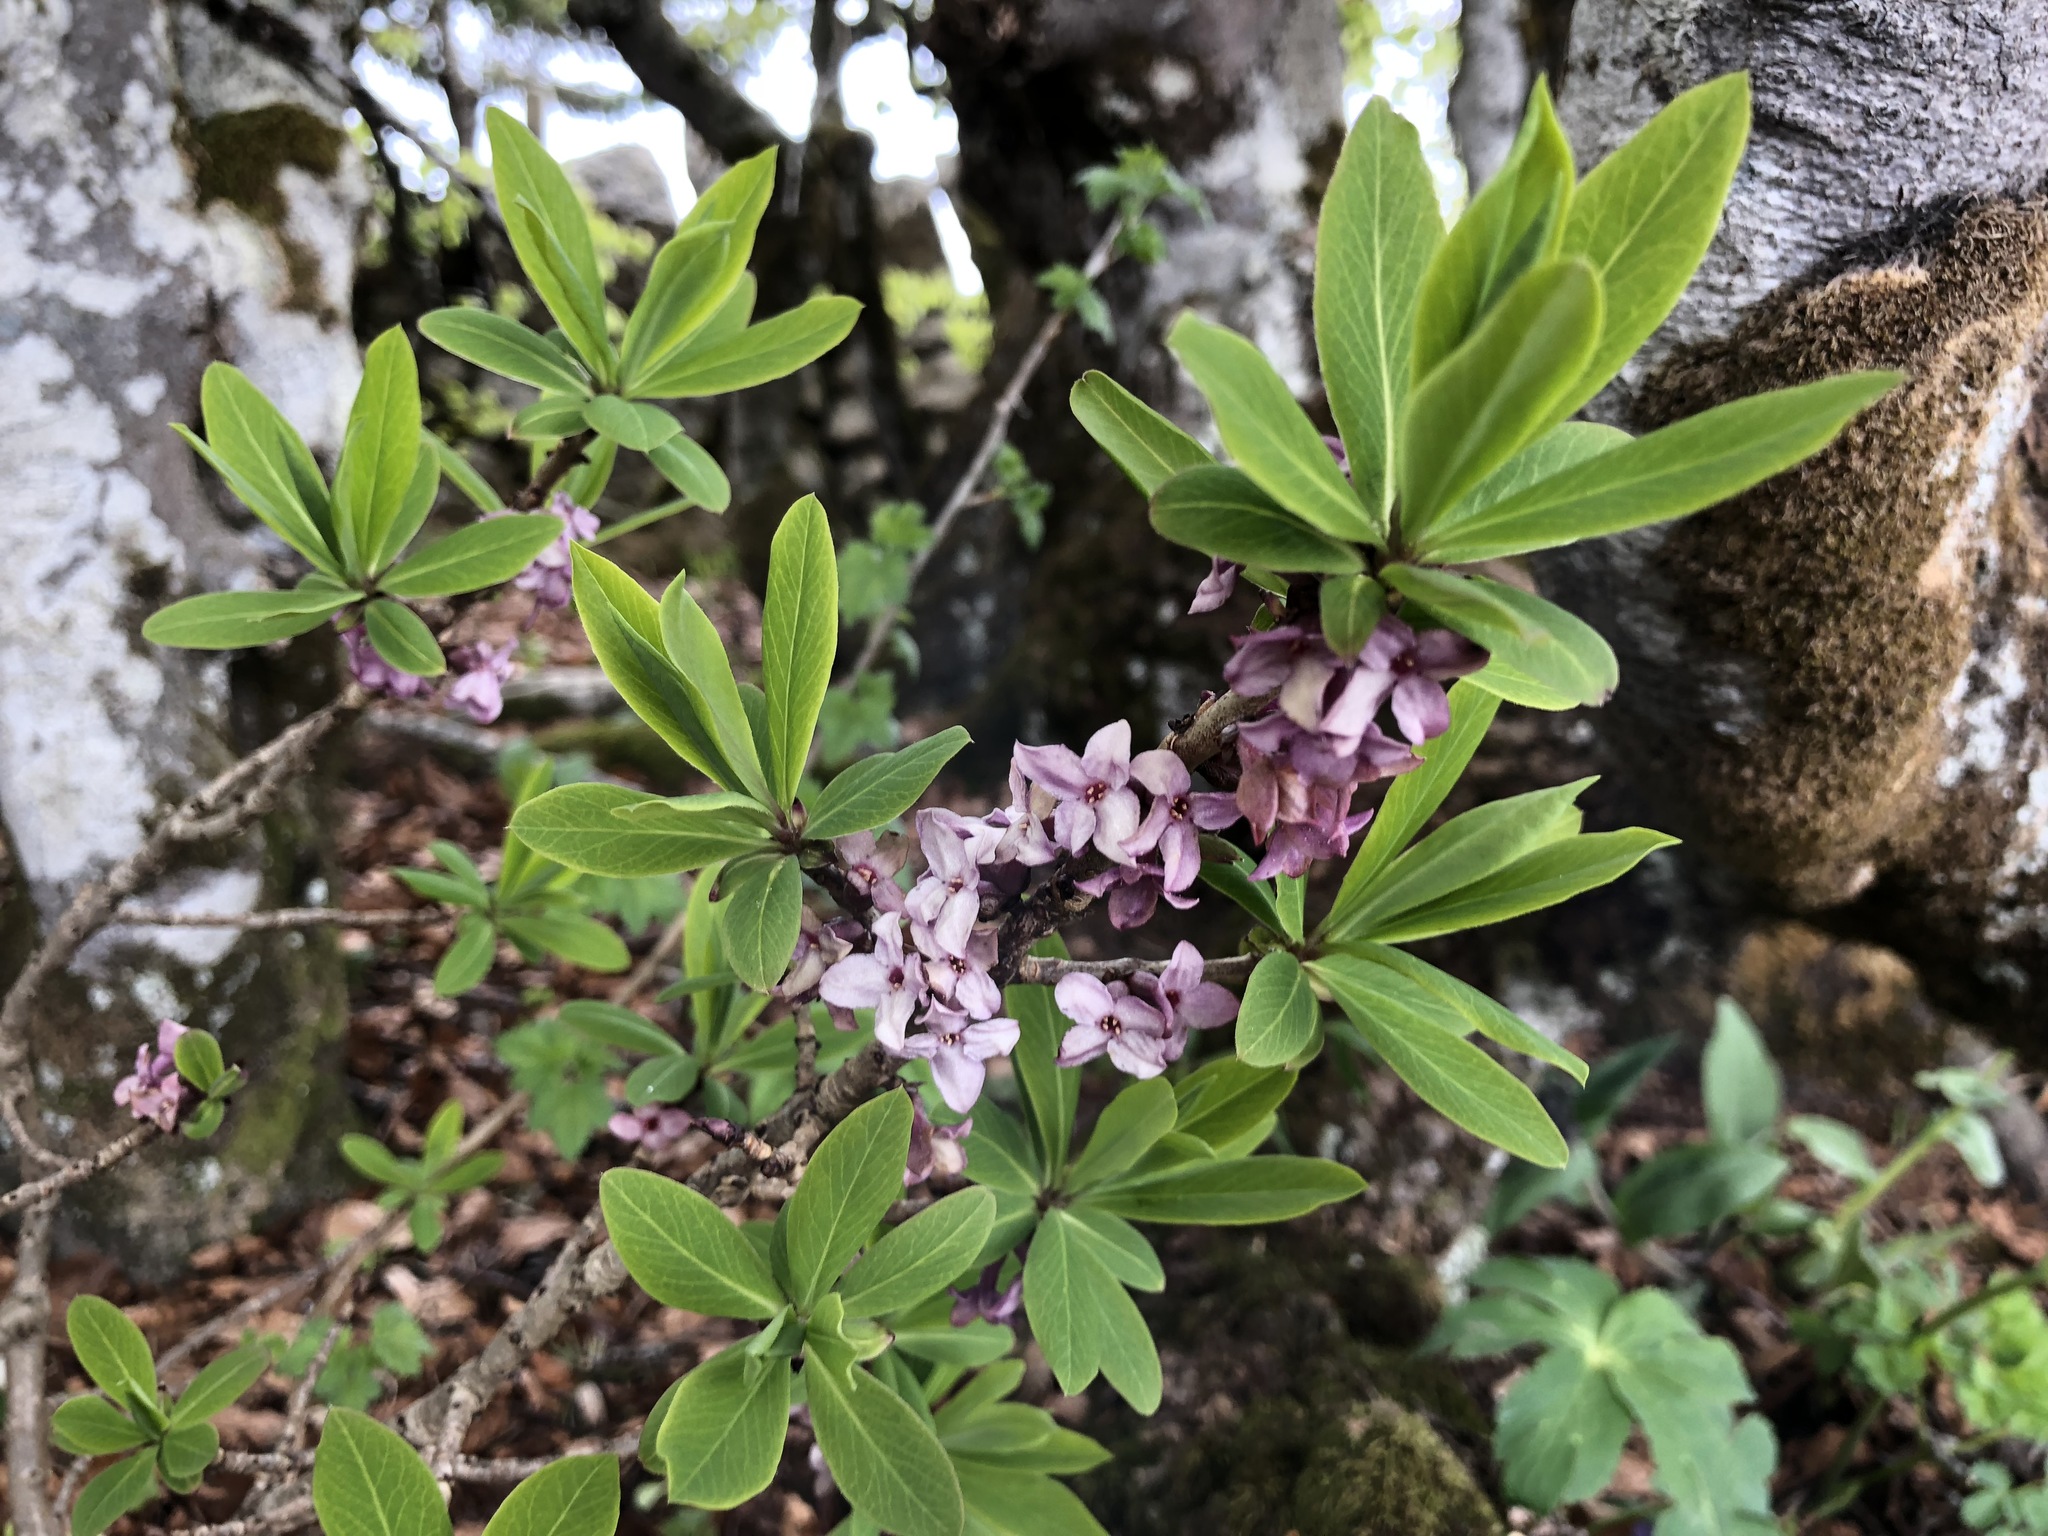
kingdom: Plantae
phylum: Tracheophyta
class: Magnoliopsida
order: Malvales
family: Thymelaeaceae
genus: Daphne
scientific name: Daphne mezereum
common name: Mezereon
